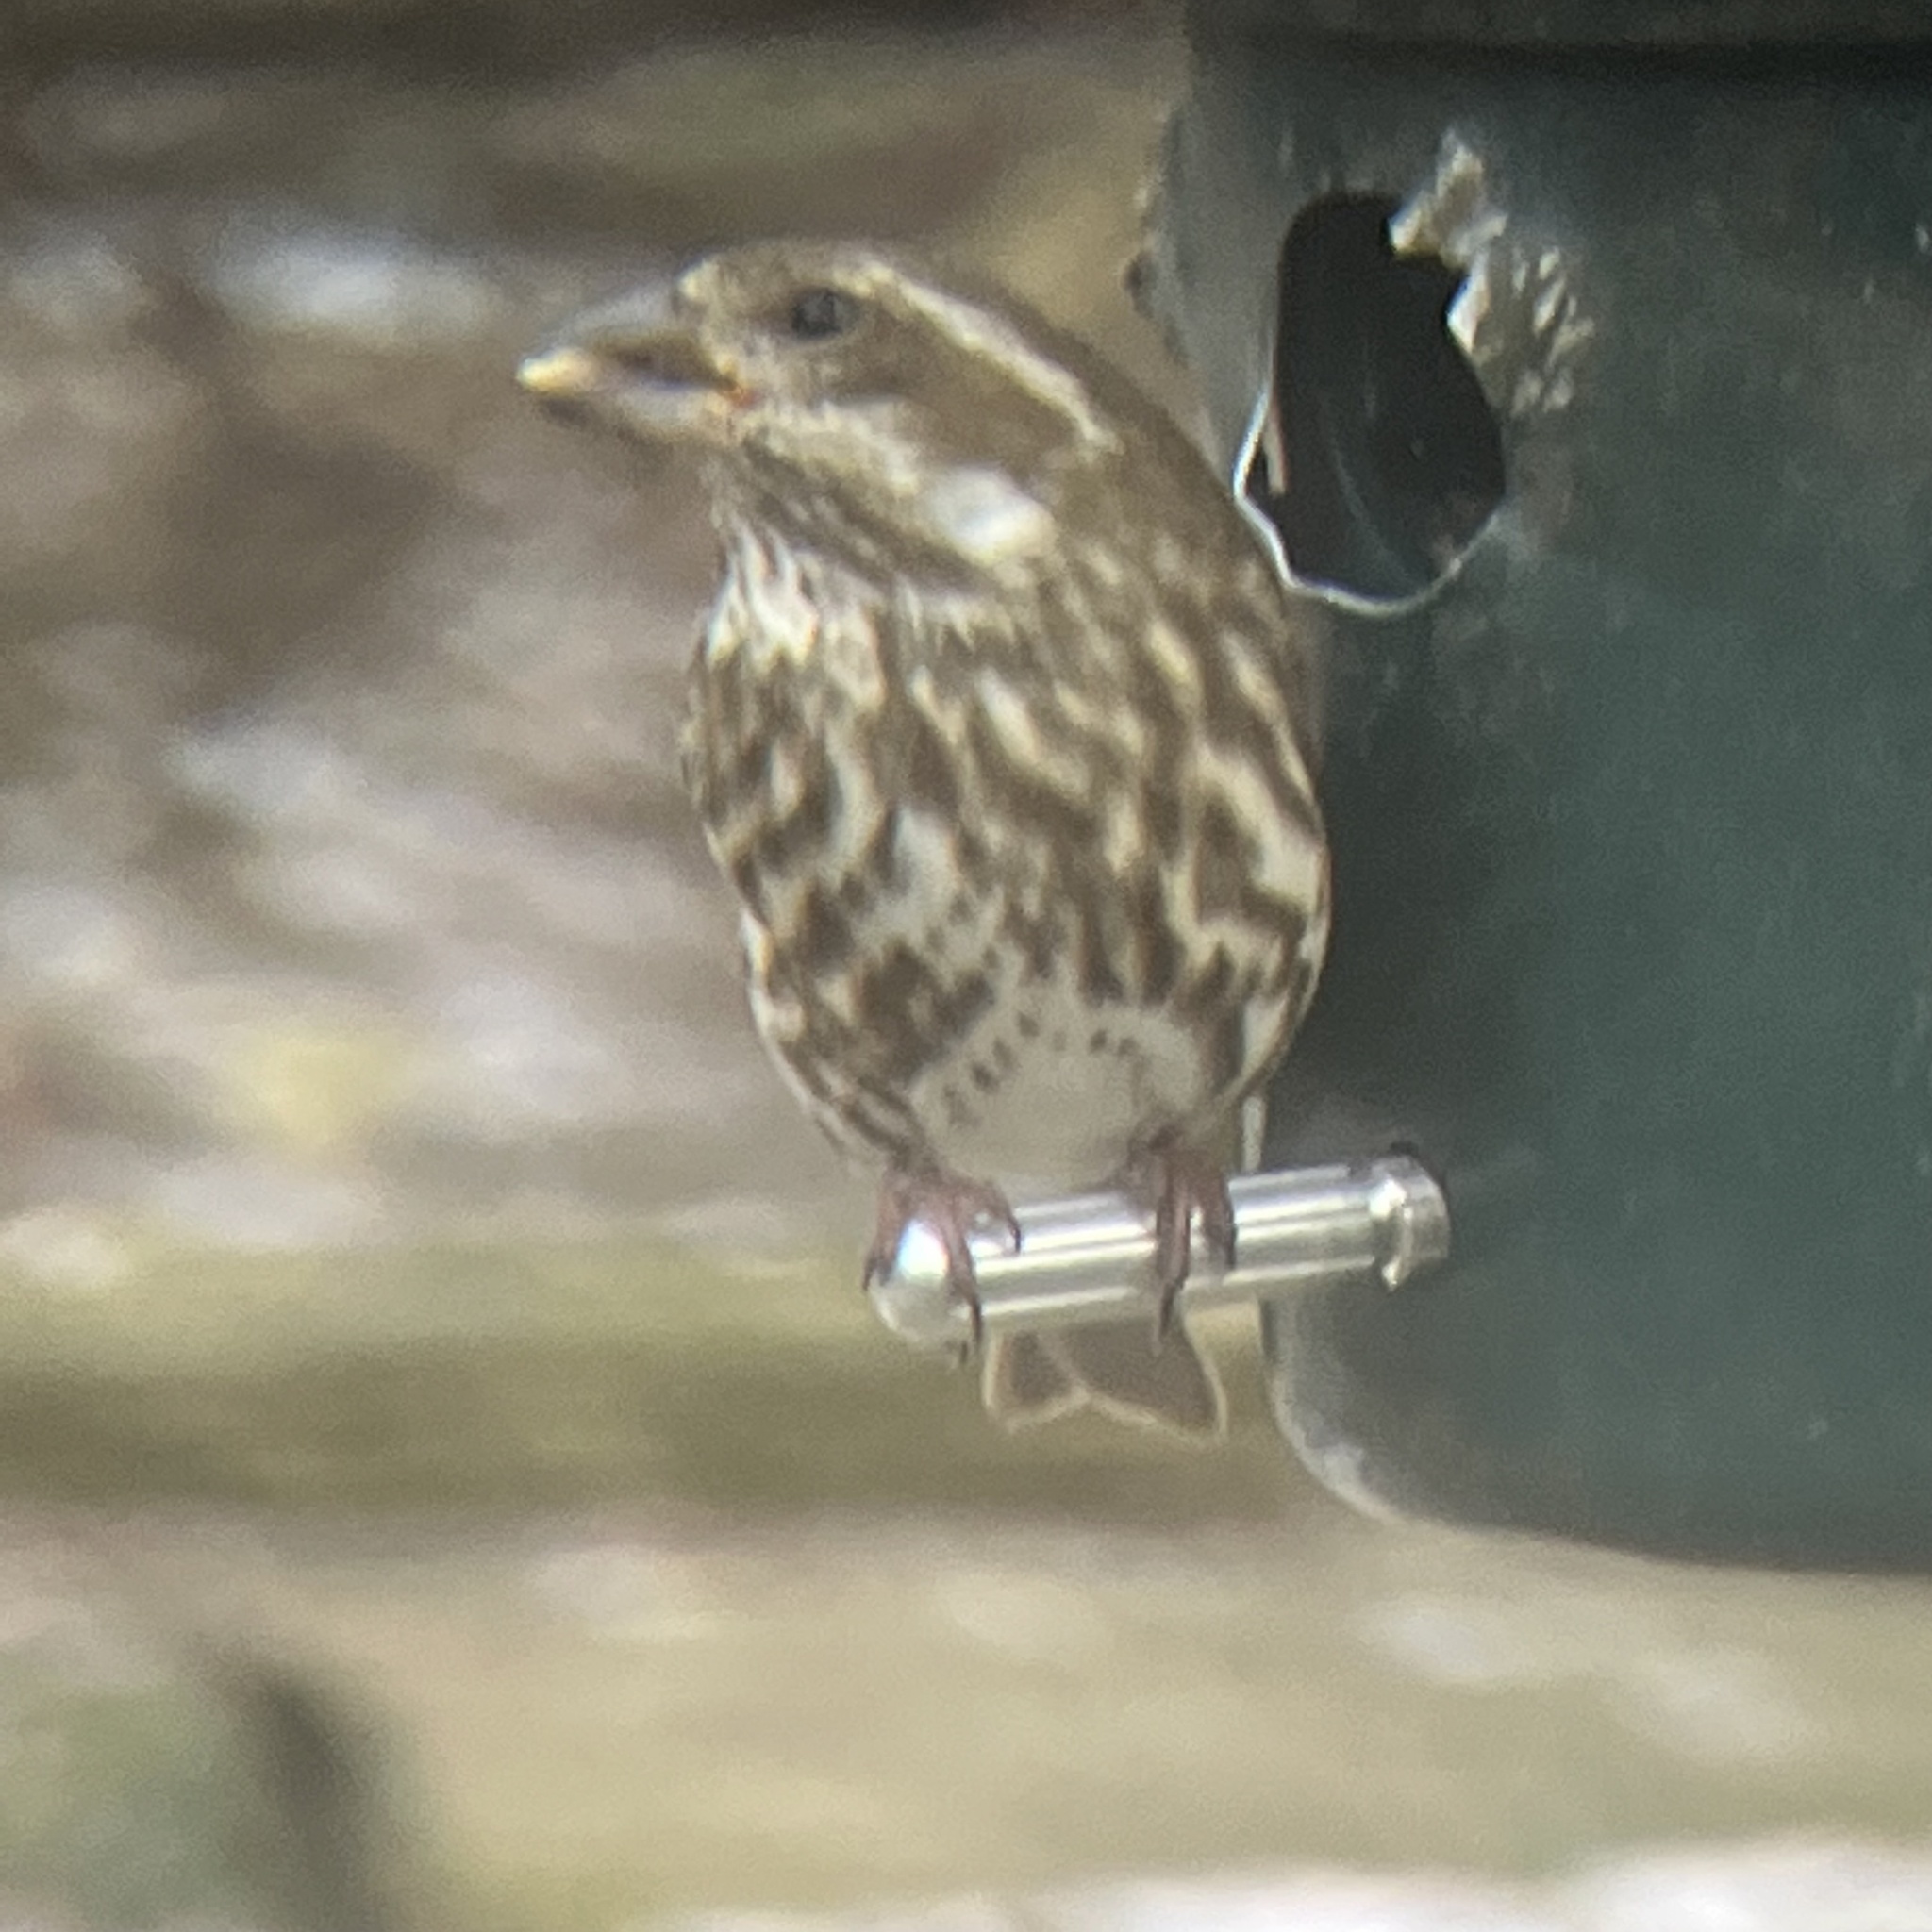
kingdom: Animalia
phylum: Chordata
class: Aves
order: Passeriformes
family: Fringillidae
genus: Haemorhous
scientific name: Haemorhous purpureus
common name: Purple finch
